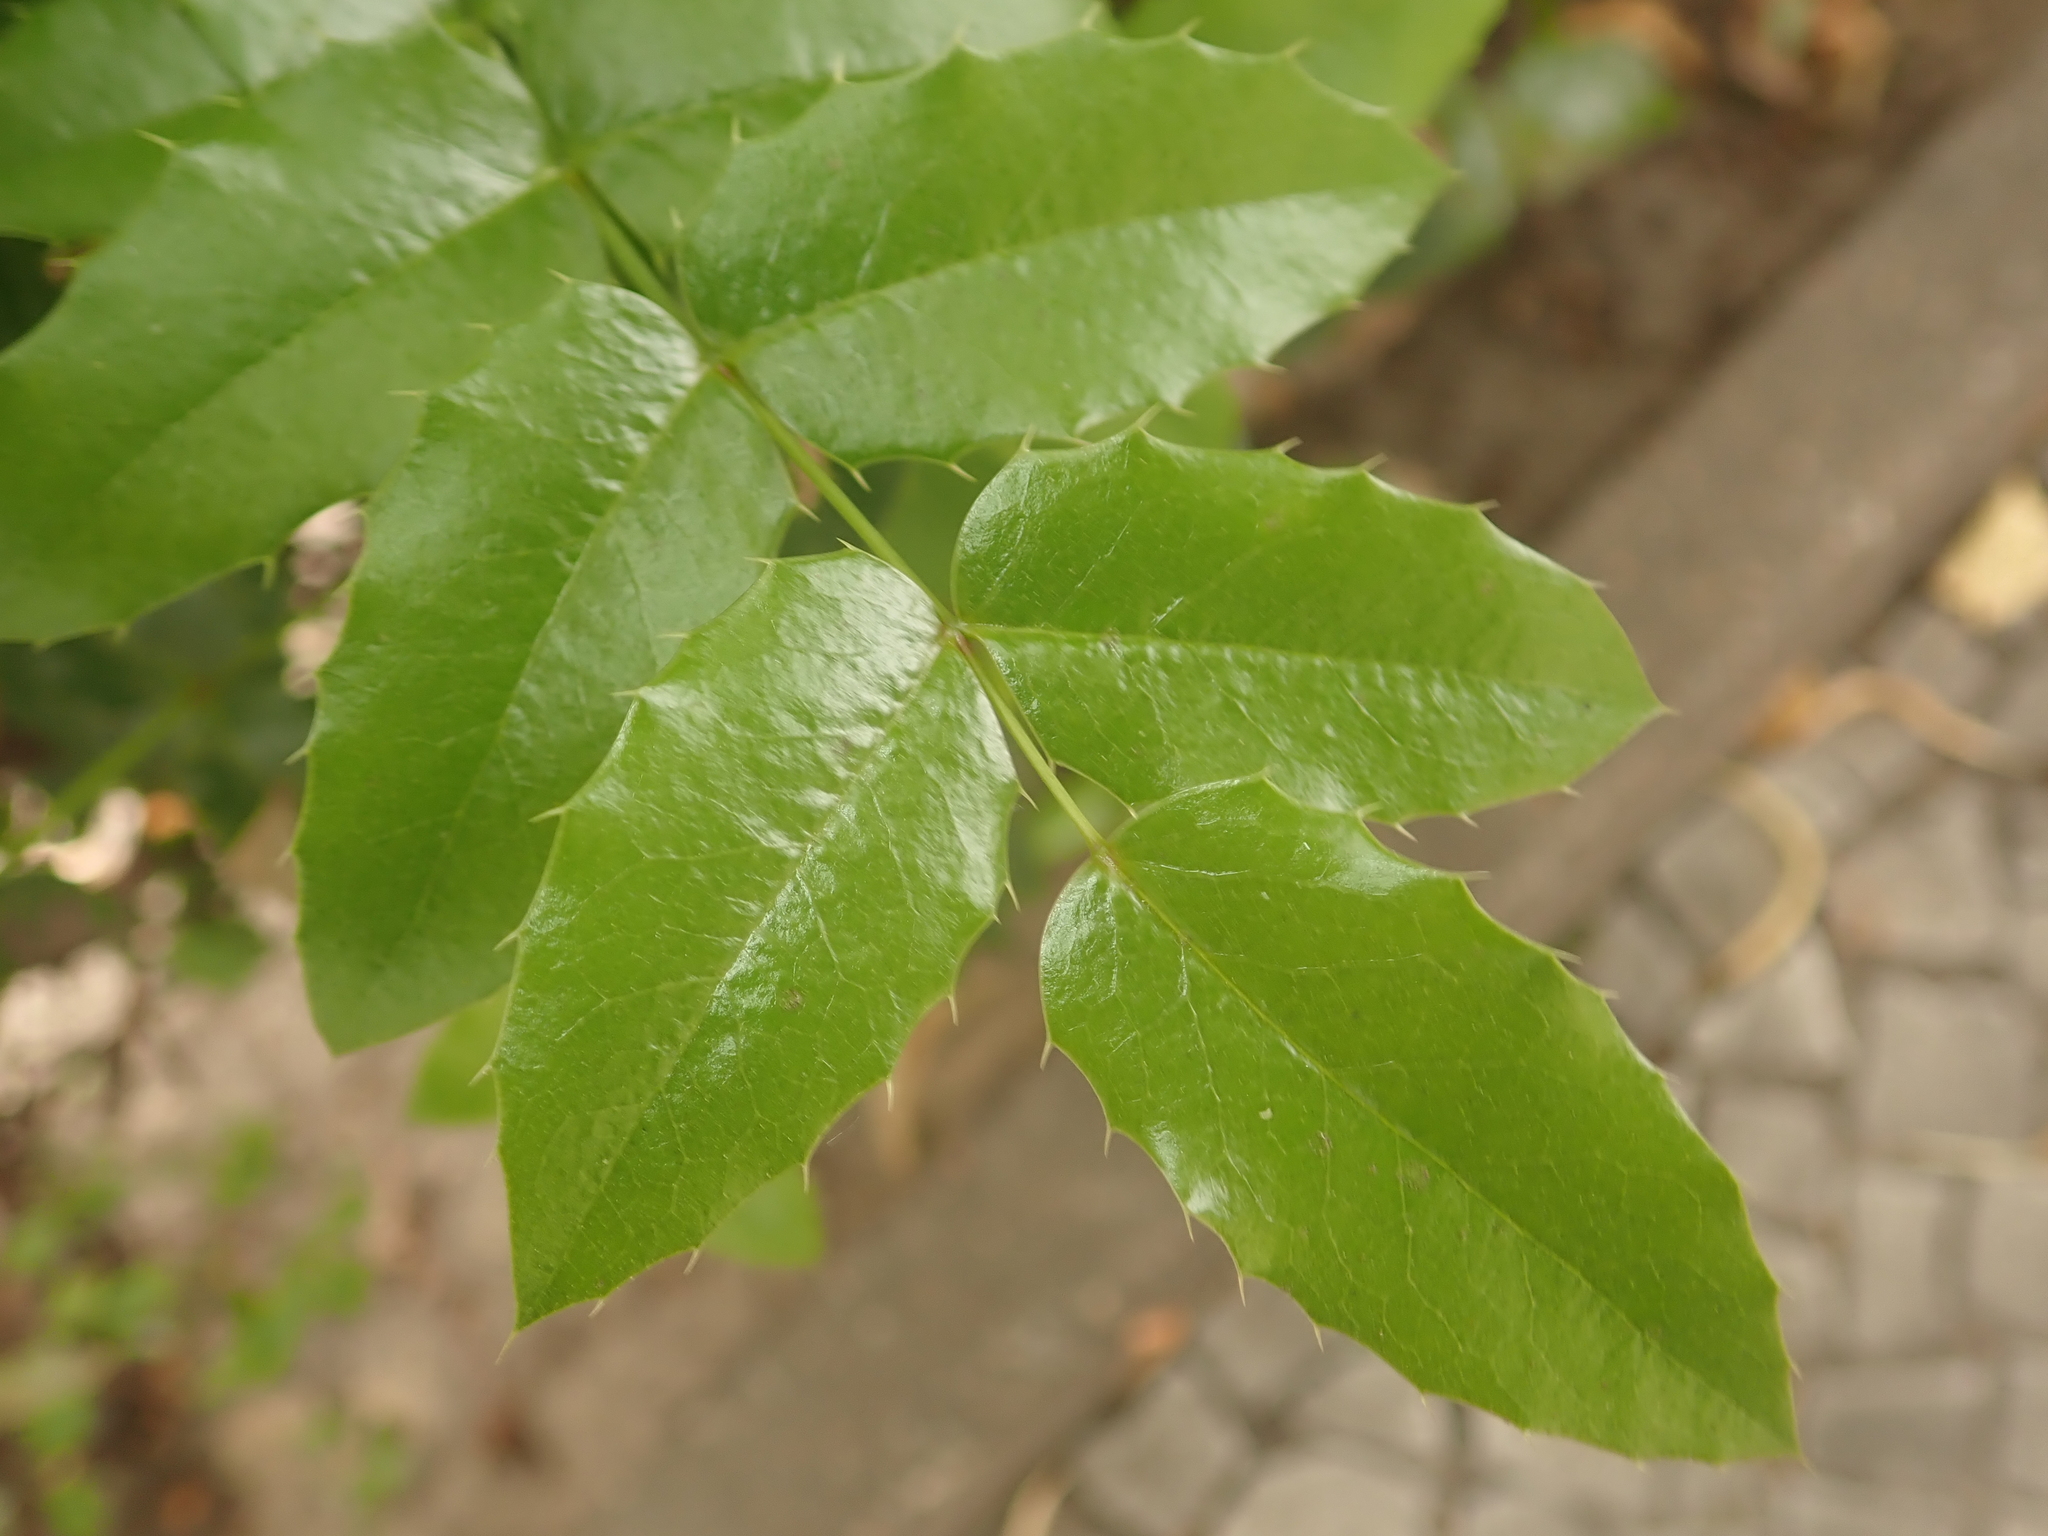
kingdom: Plantae
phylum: Tracheophyta
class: Magnoliopsida
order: Ranunculales
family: Berberidaceae
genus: Mahonia
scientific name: Mahonia aquifolium
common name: Oregon-grape
